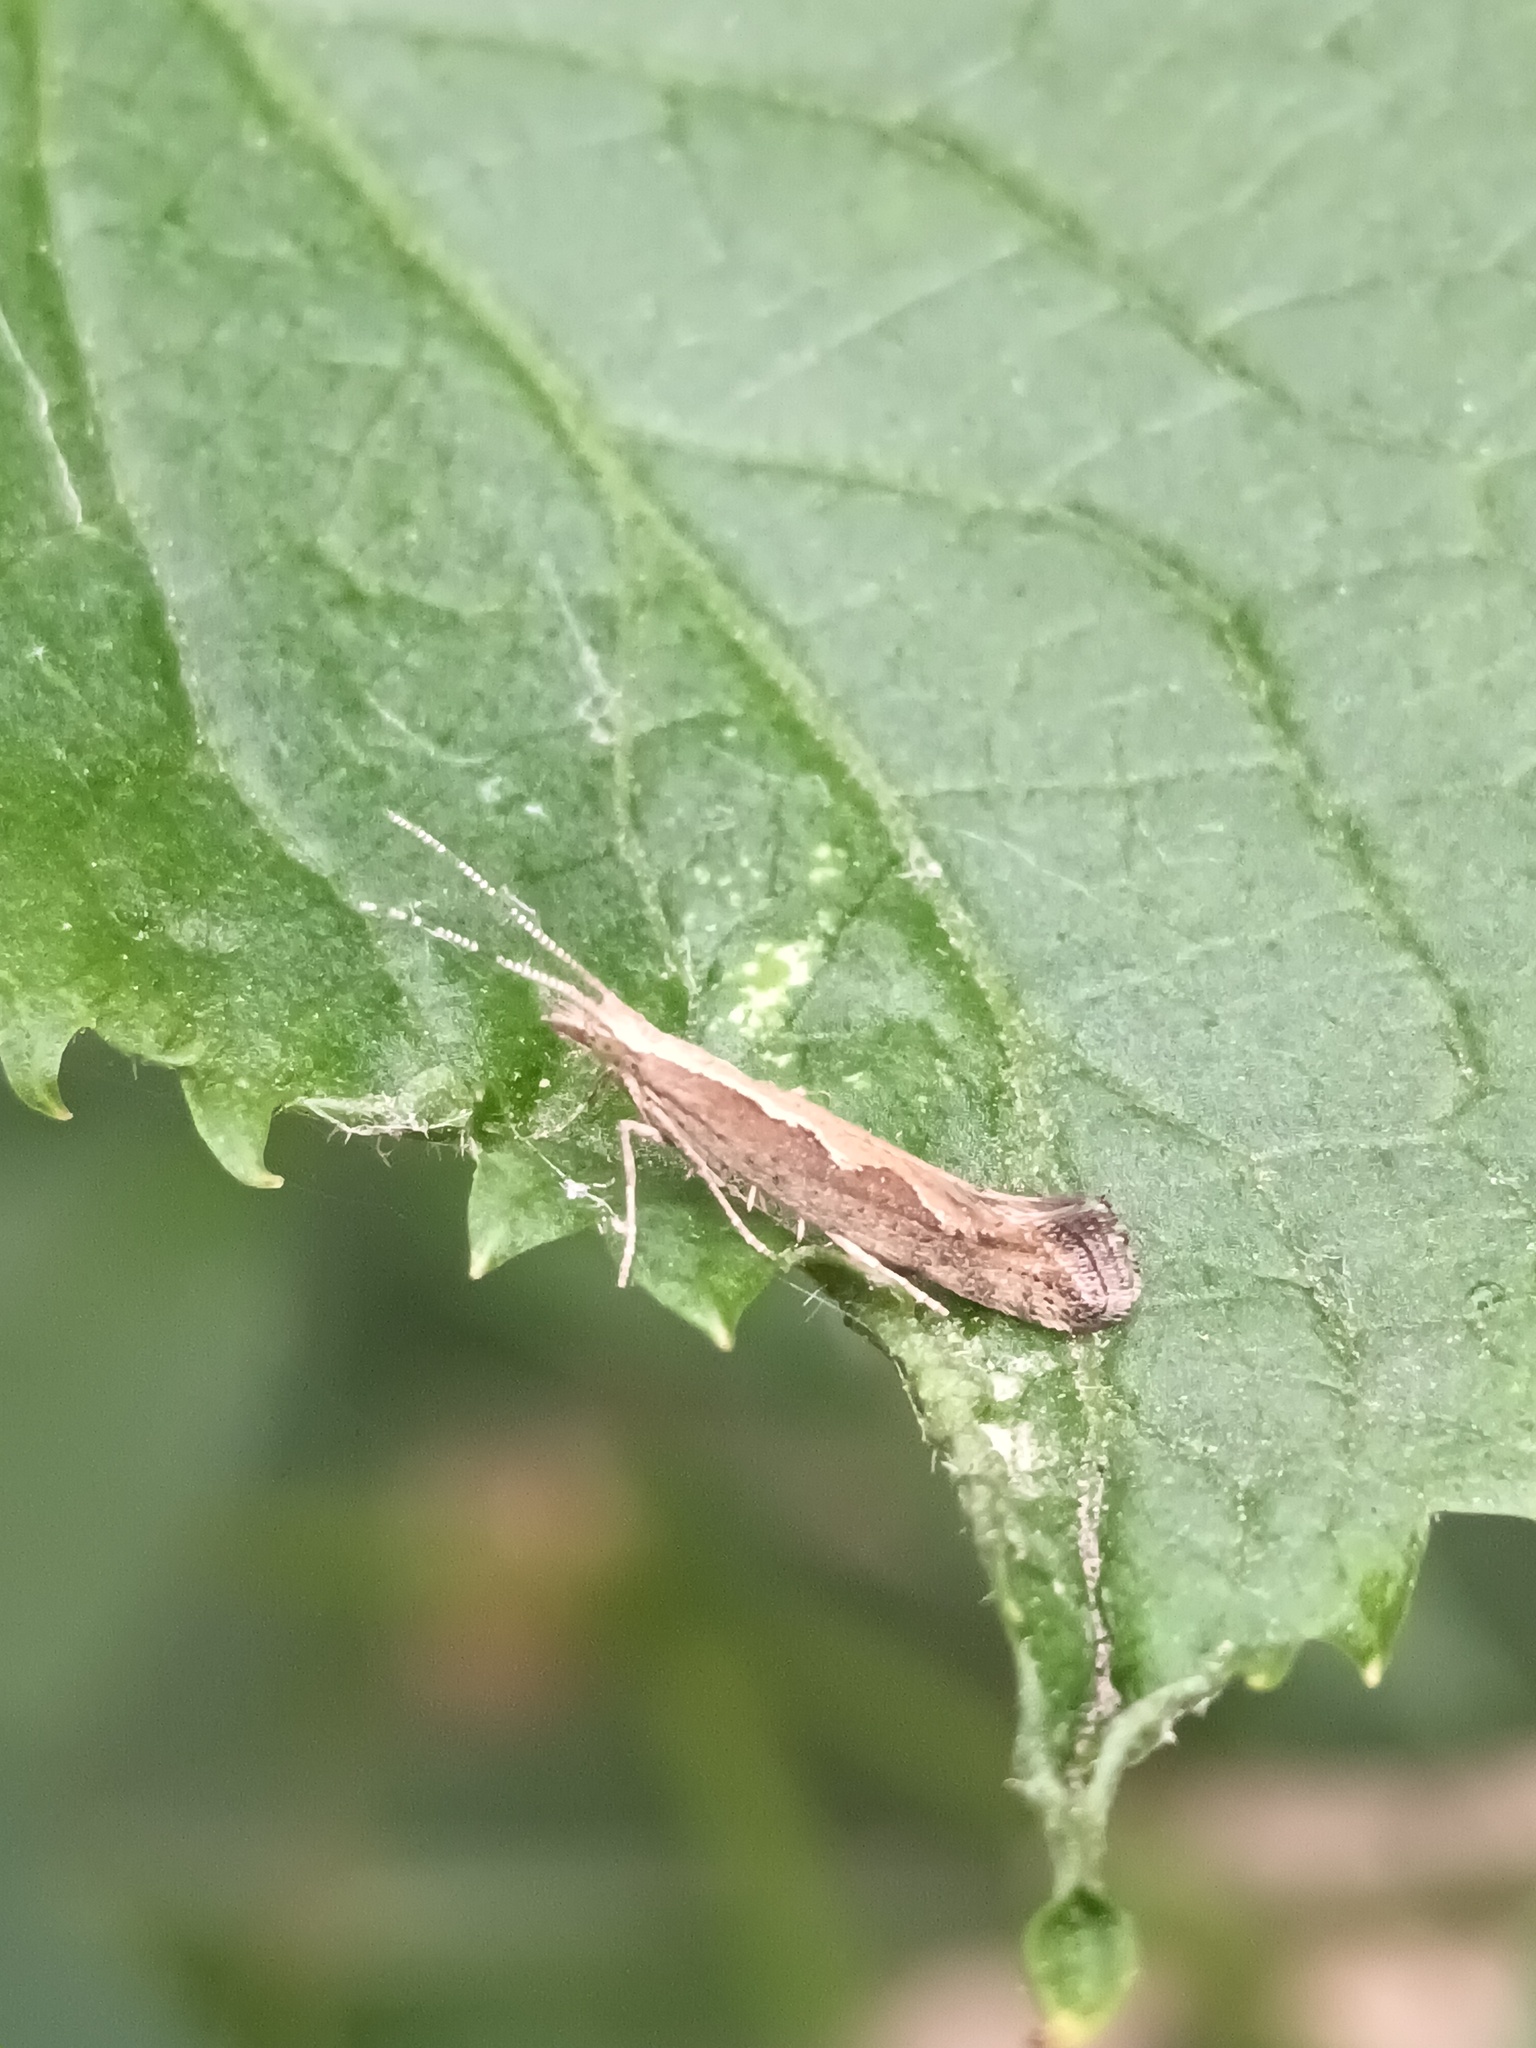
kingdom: Animalia
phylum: Arthropoda
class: Insecta
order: Lepidoptera
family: Plutellidae
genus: Plutella
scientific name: Plutella xylostella
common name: Diamond-back moth
